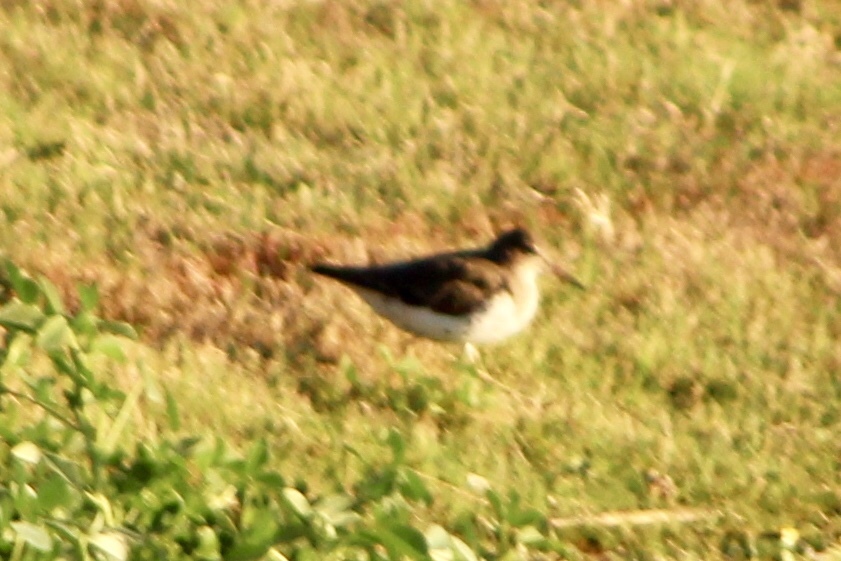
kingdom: Animalia
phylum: Chordata
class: Aves
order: Charadriiformes
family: Scolopacidae
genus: Actitis
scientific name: Actitis macularius
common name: Spotted sandpiper
